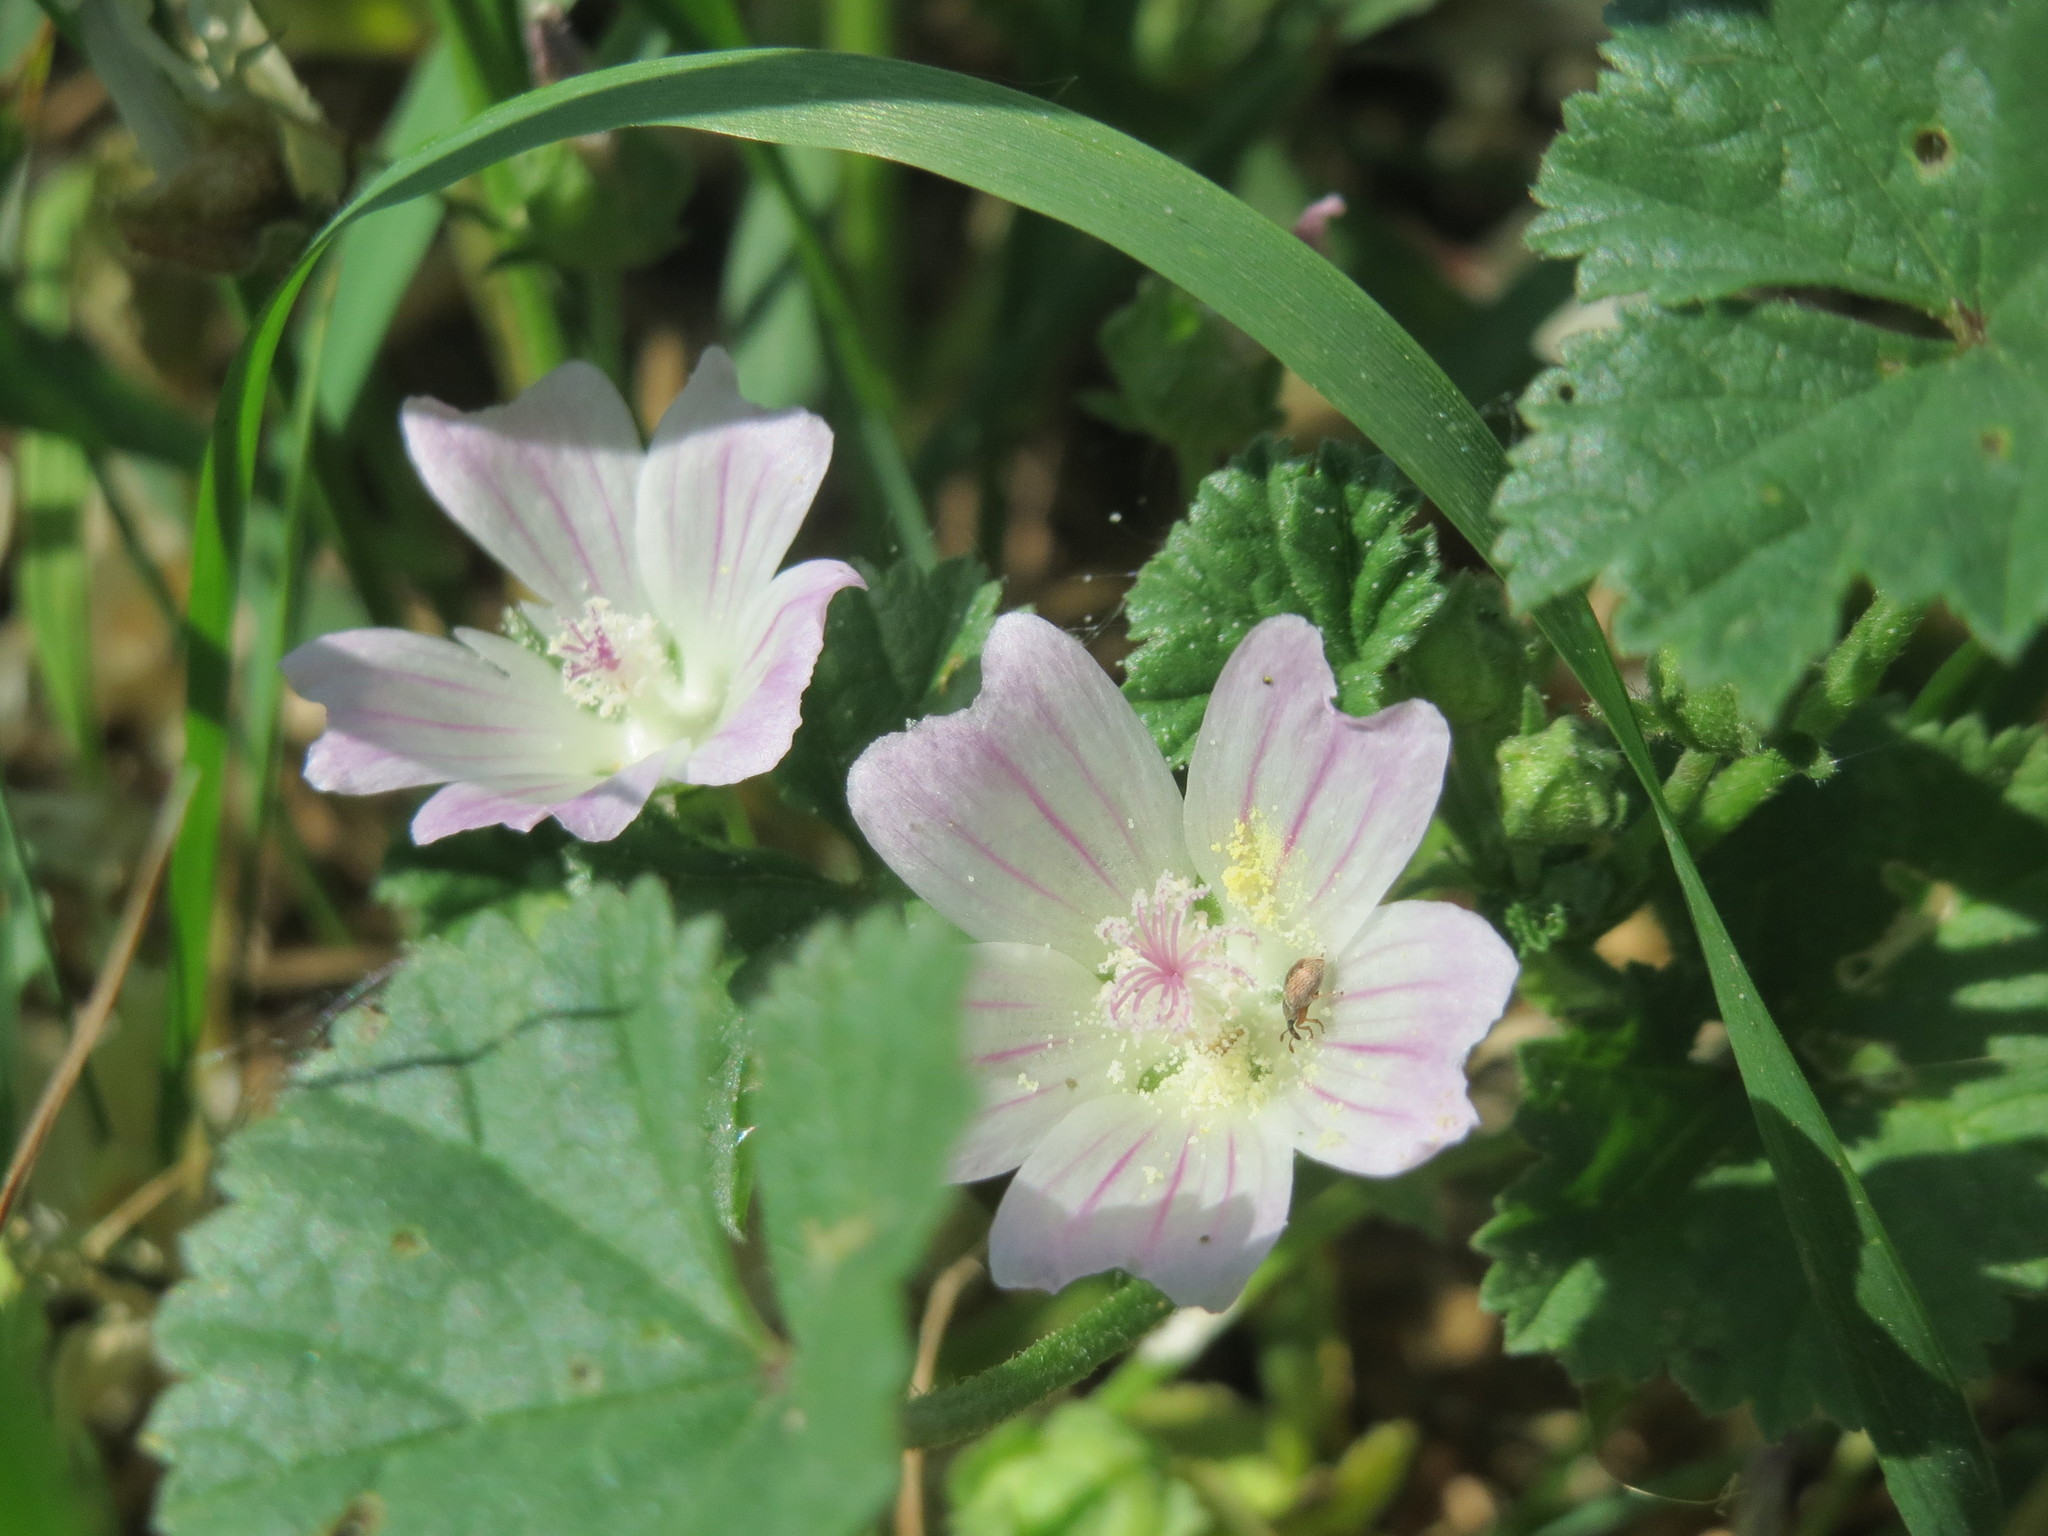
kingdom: Plantae
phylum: Tracheophyta
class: Magnoliopsida
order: Malvales
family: Malvaceae
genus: Malva
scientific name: Malva neglecta
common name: Common mallow
